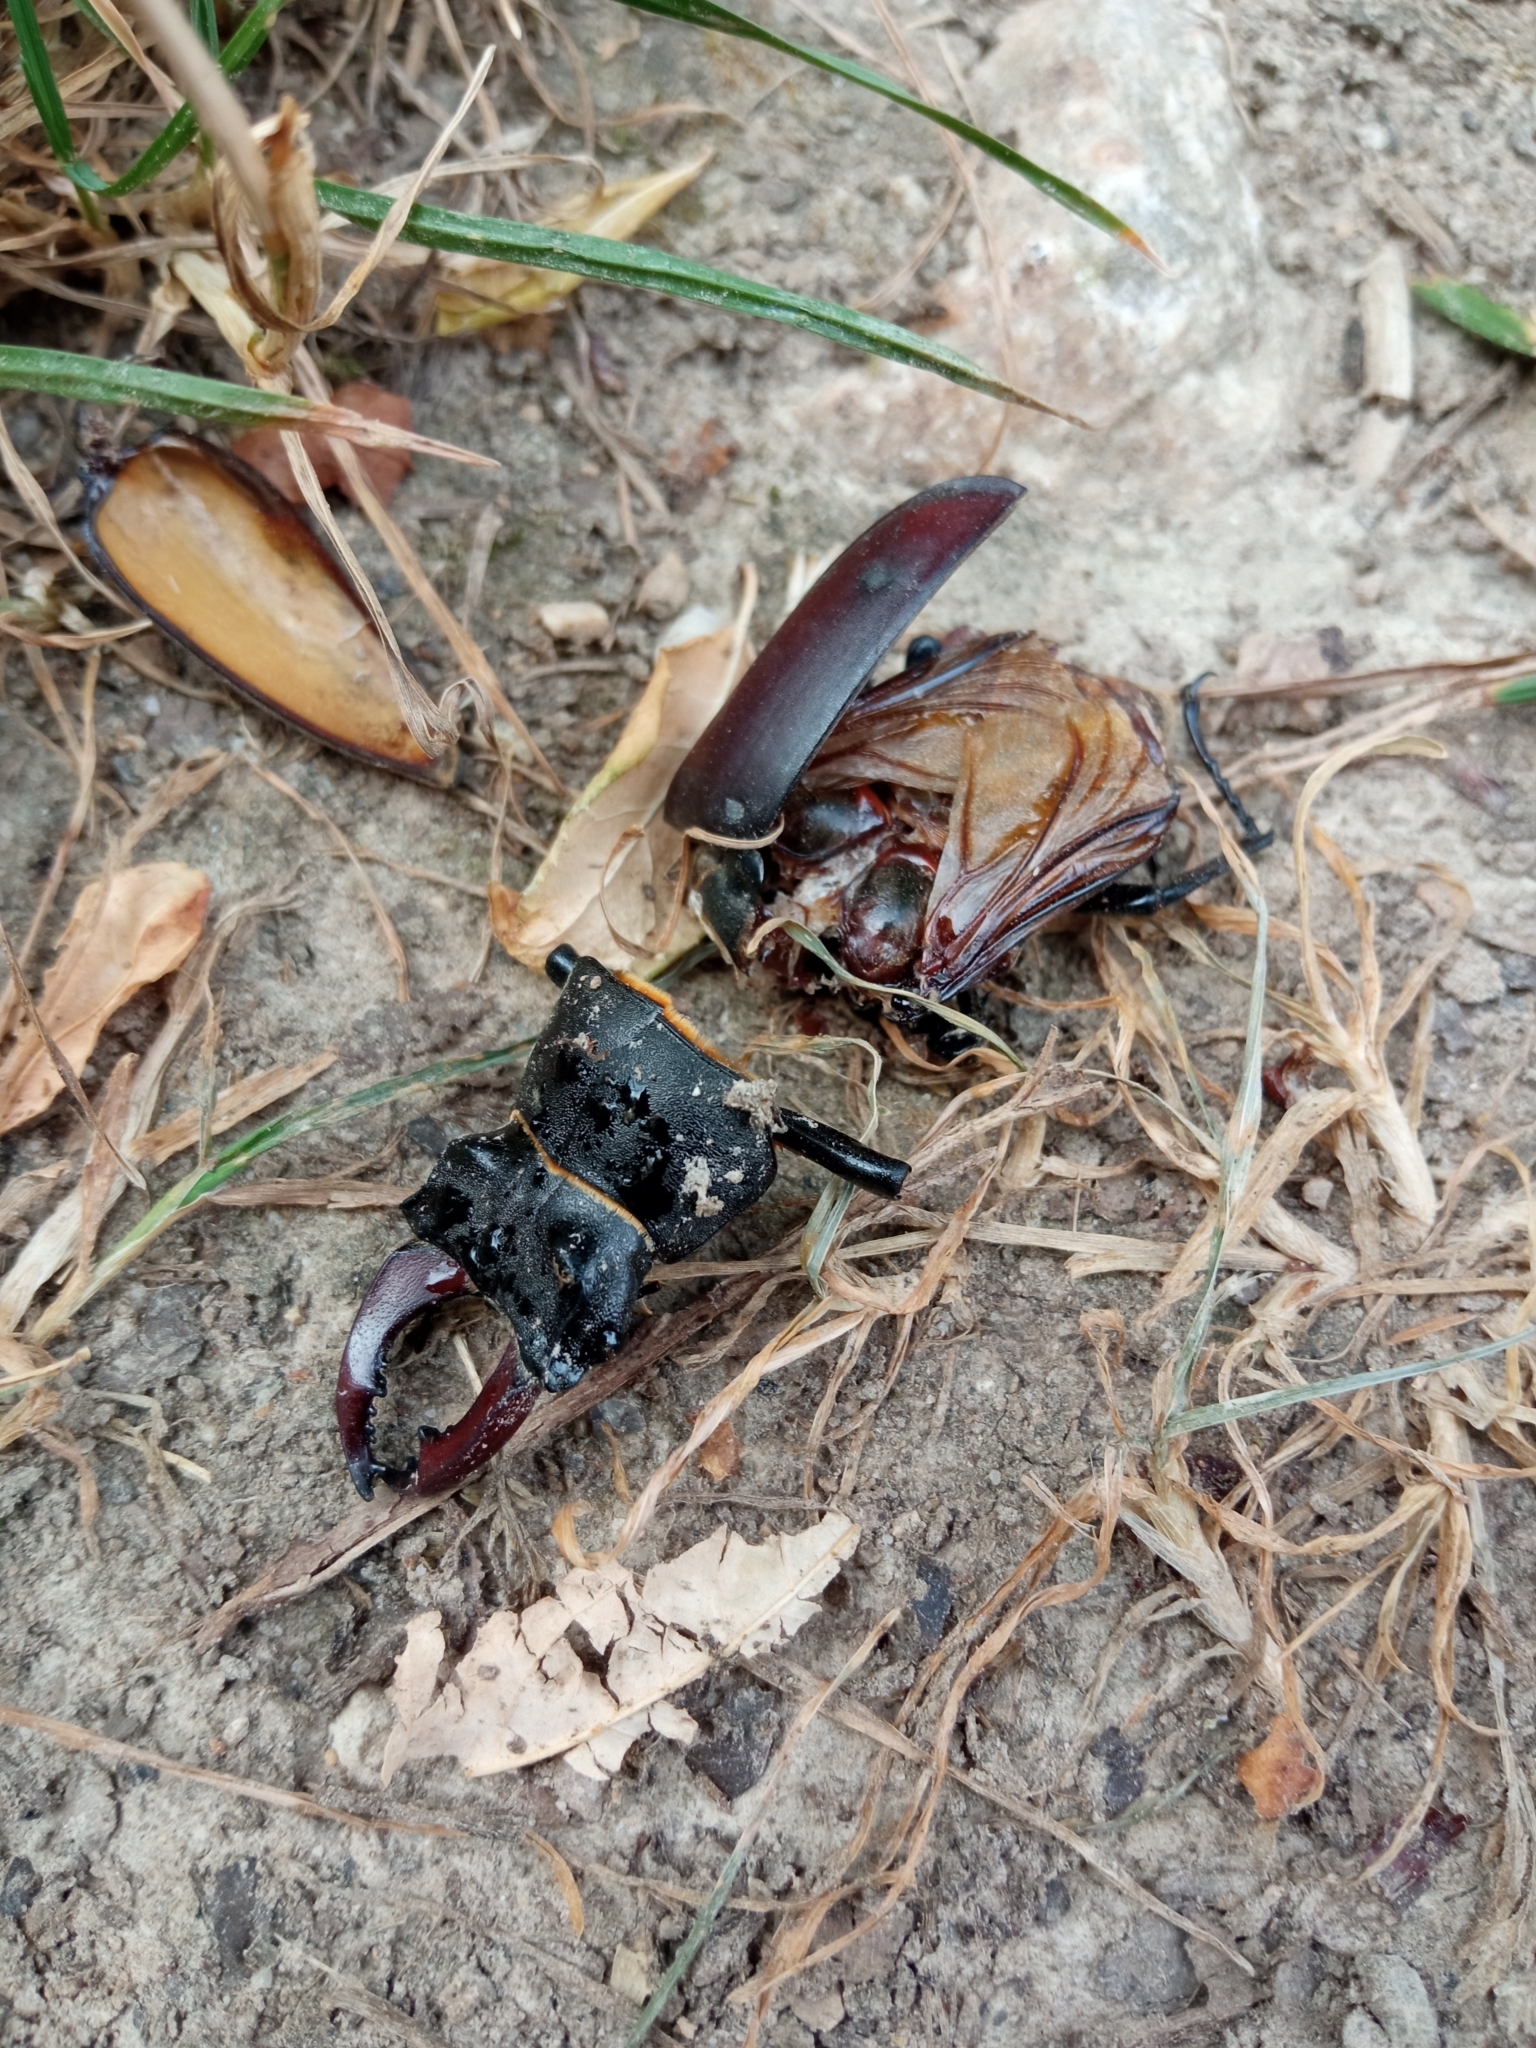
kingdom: Animalia
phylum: Arthropoda
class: Insecta
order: Coleoptera
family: Lucanidae
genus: Lucanus
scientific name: Lucanus cervus
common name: Stag beetle
